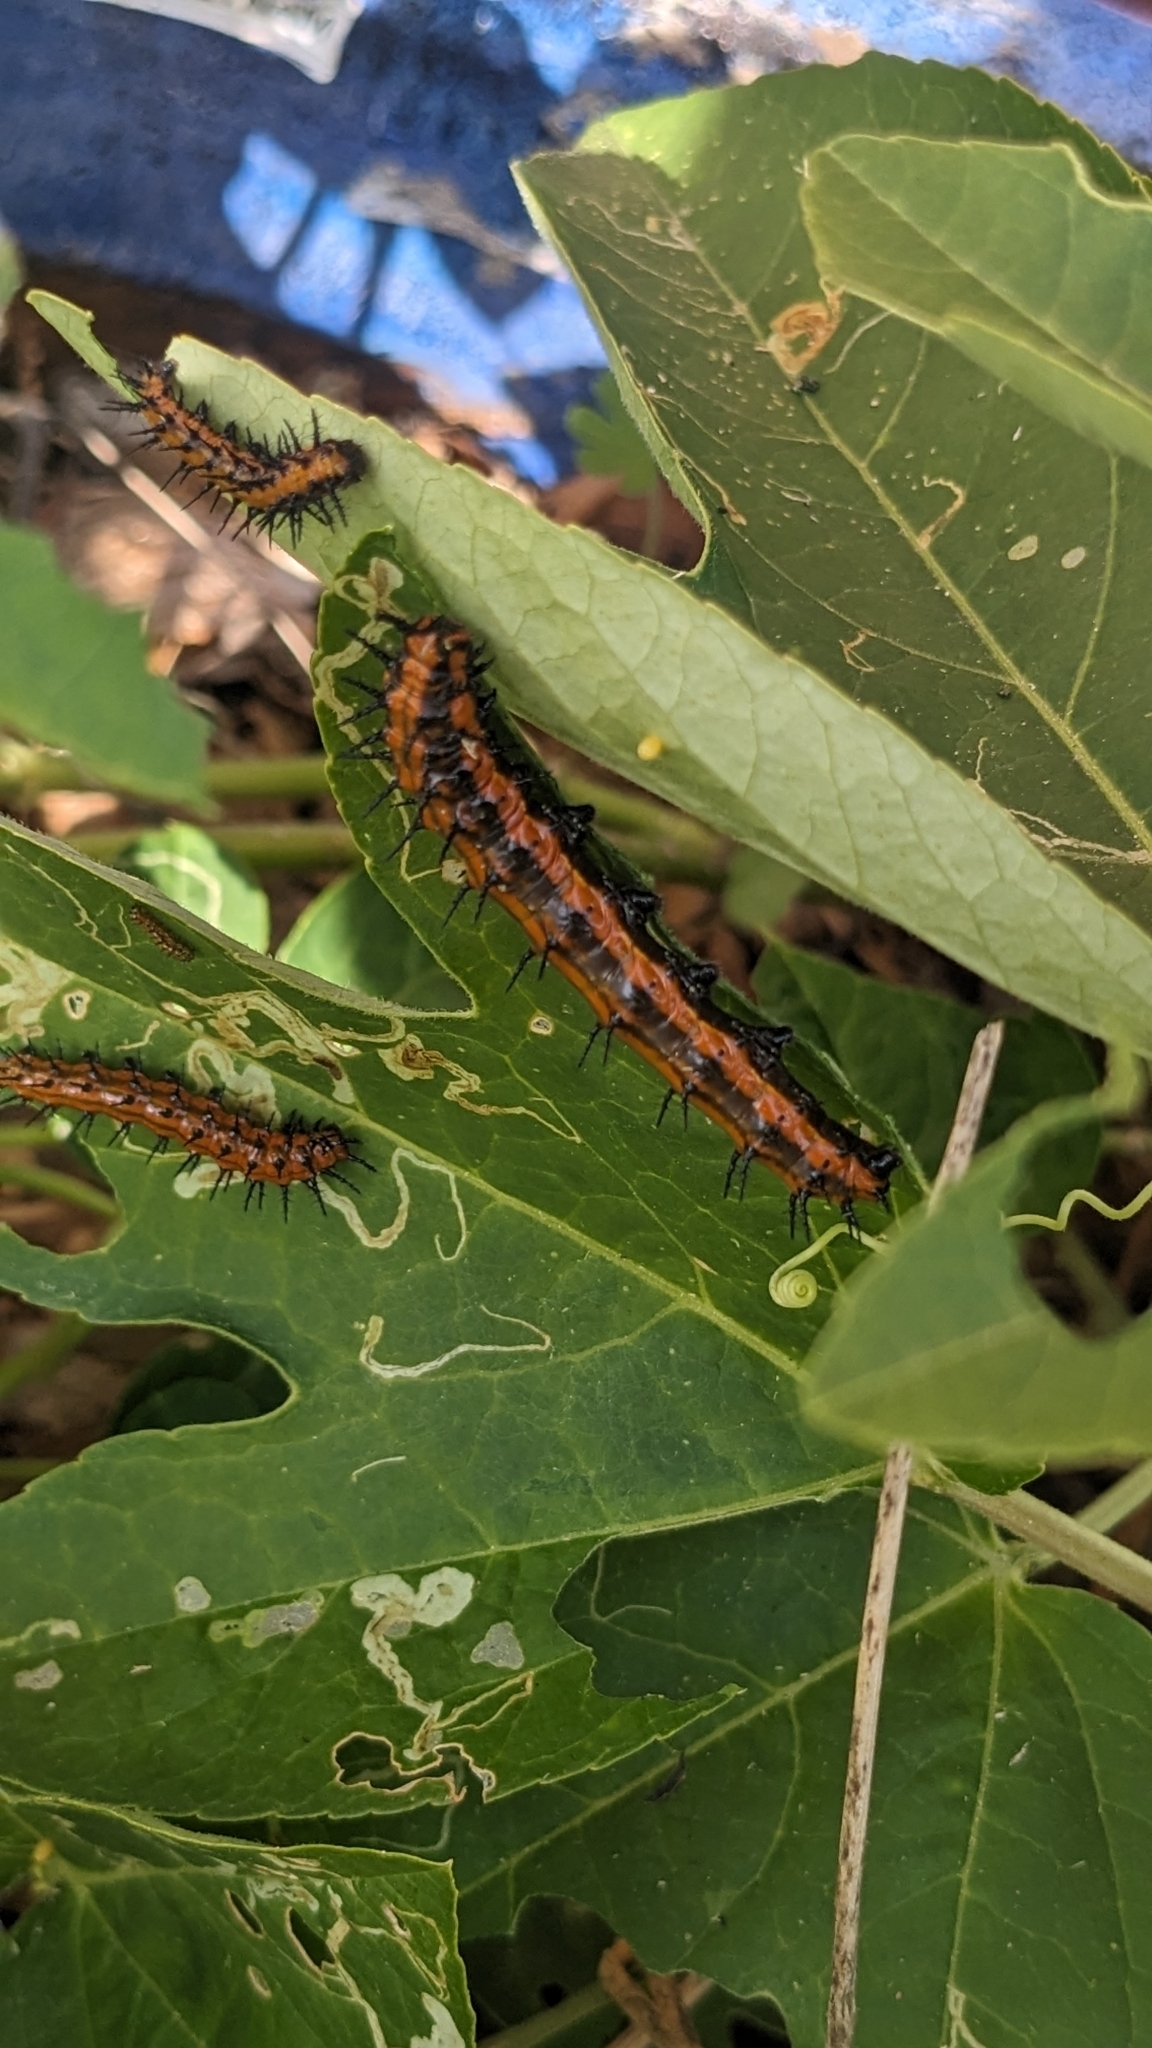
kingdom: Animalia
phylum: Arthropoda
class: Insecta
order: Lepidoptera
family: Nymphalidae
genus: Dione
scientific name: Dione vanillae
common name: Gulf fritillary
